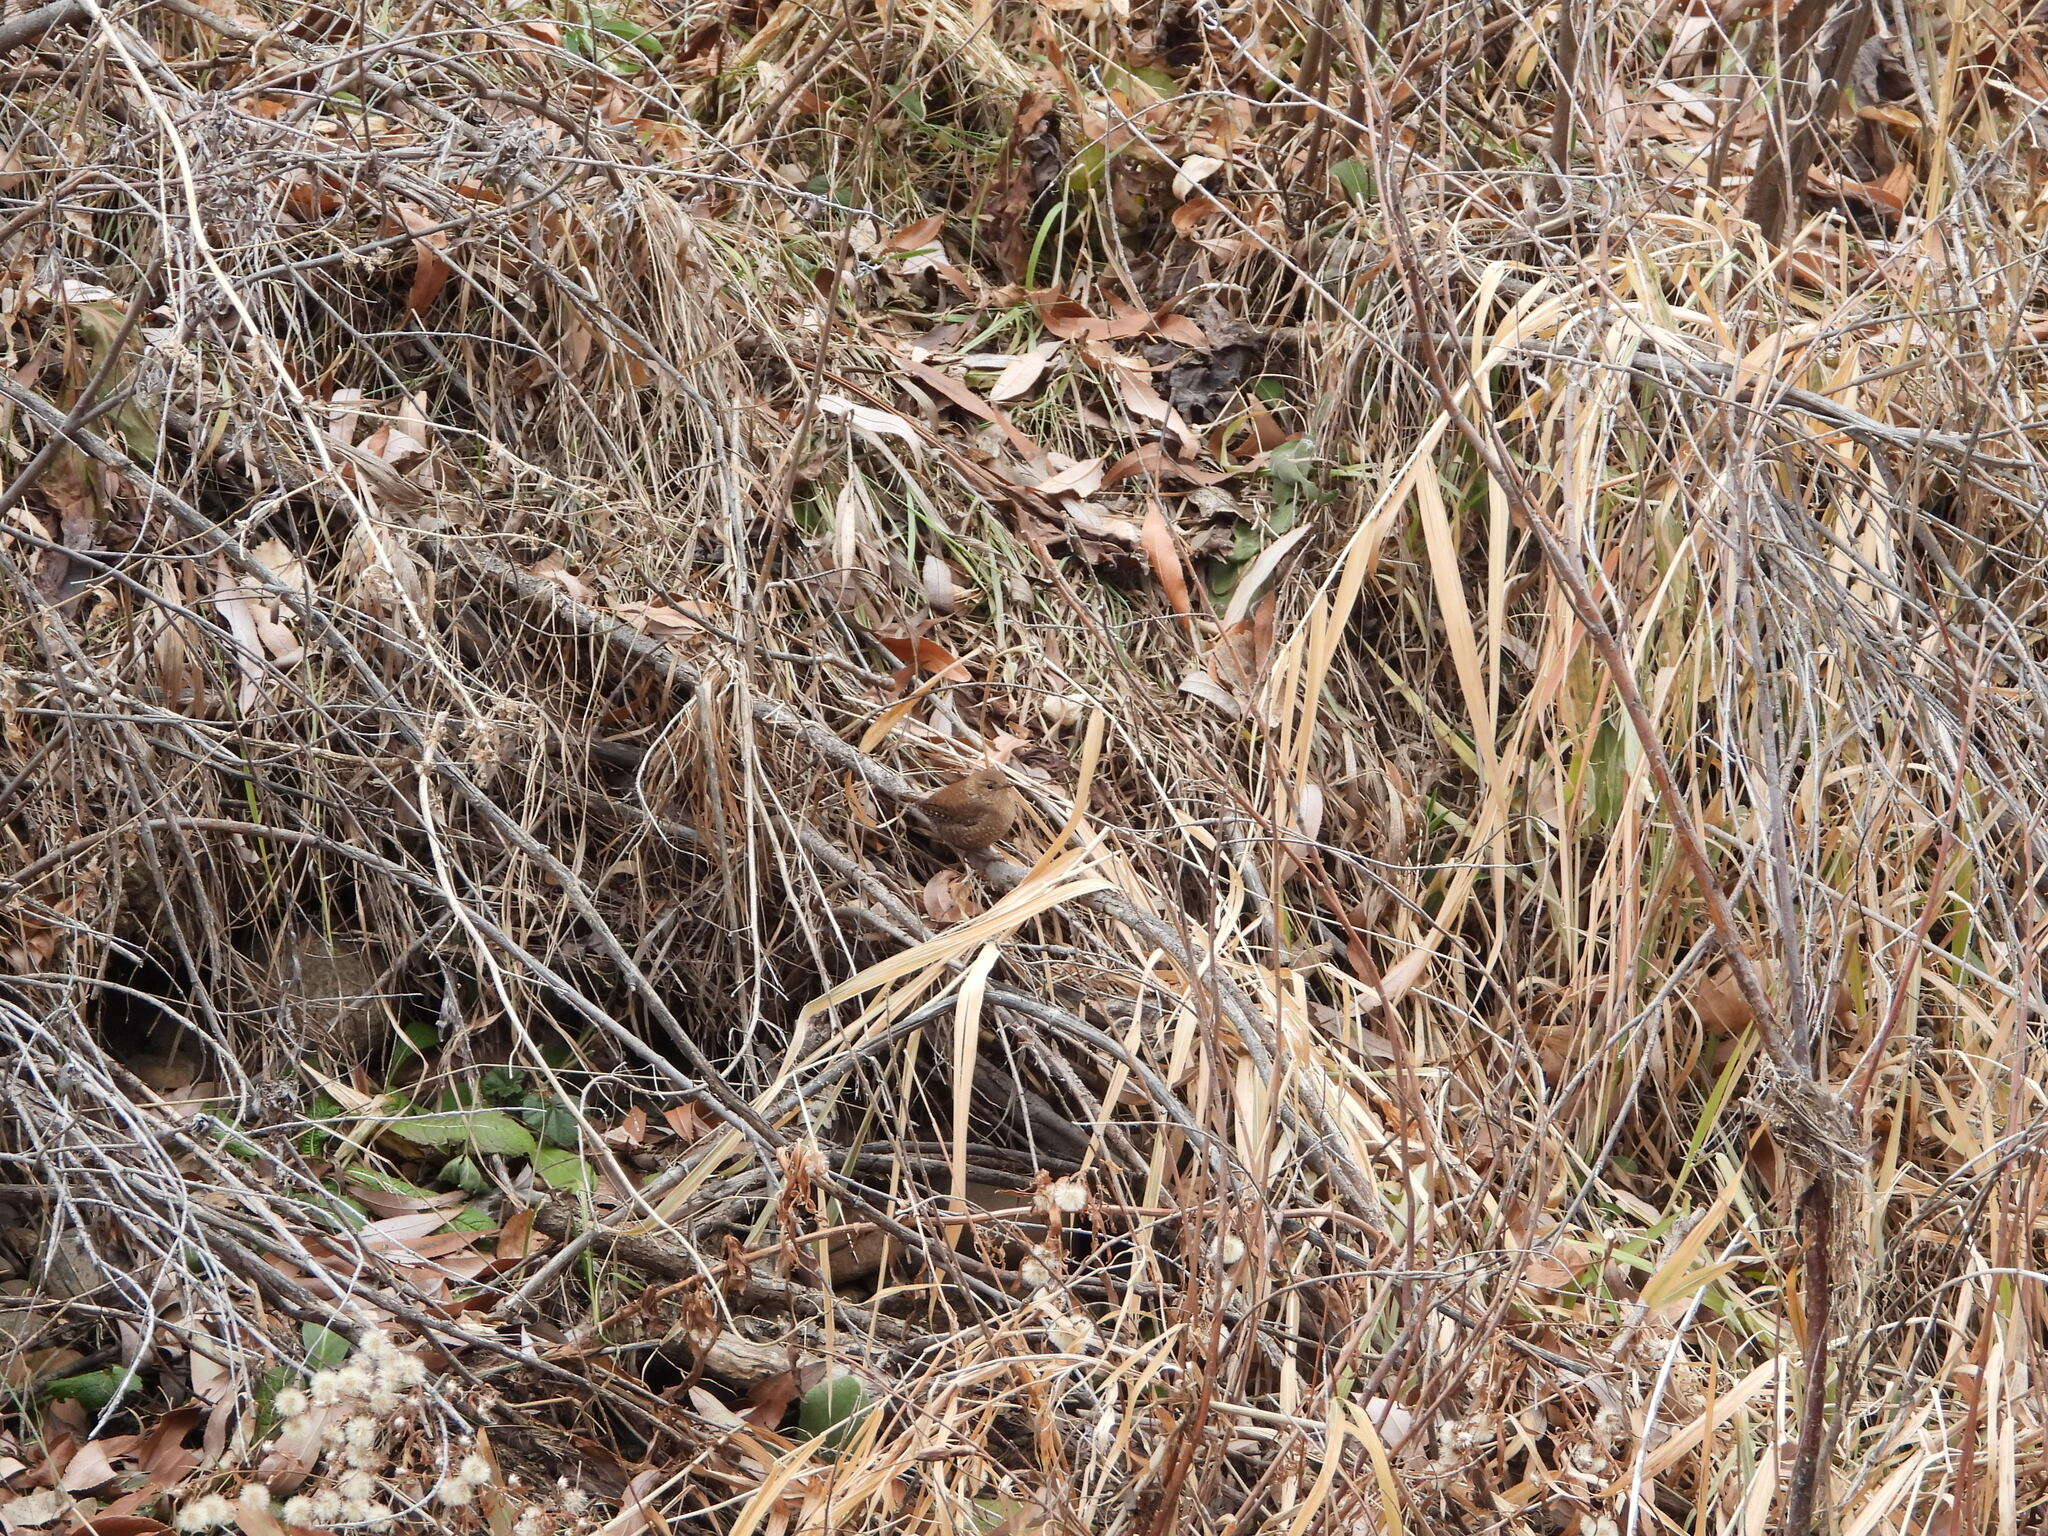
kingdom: Animalia
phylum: Chordata
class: Aves
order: Passeriformes
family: Troglodytidae
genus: Troglodytes
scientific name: Troglodytes hiemalis
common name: Winter wren
